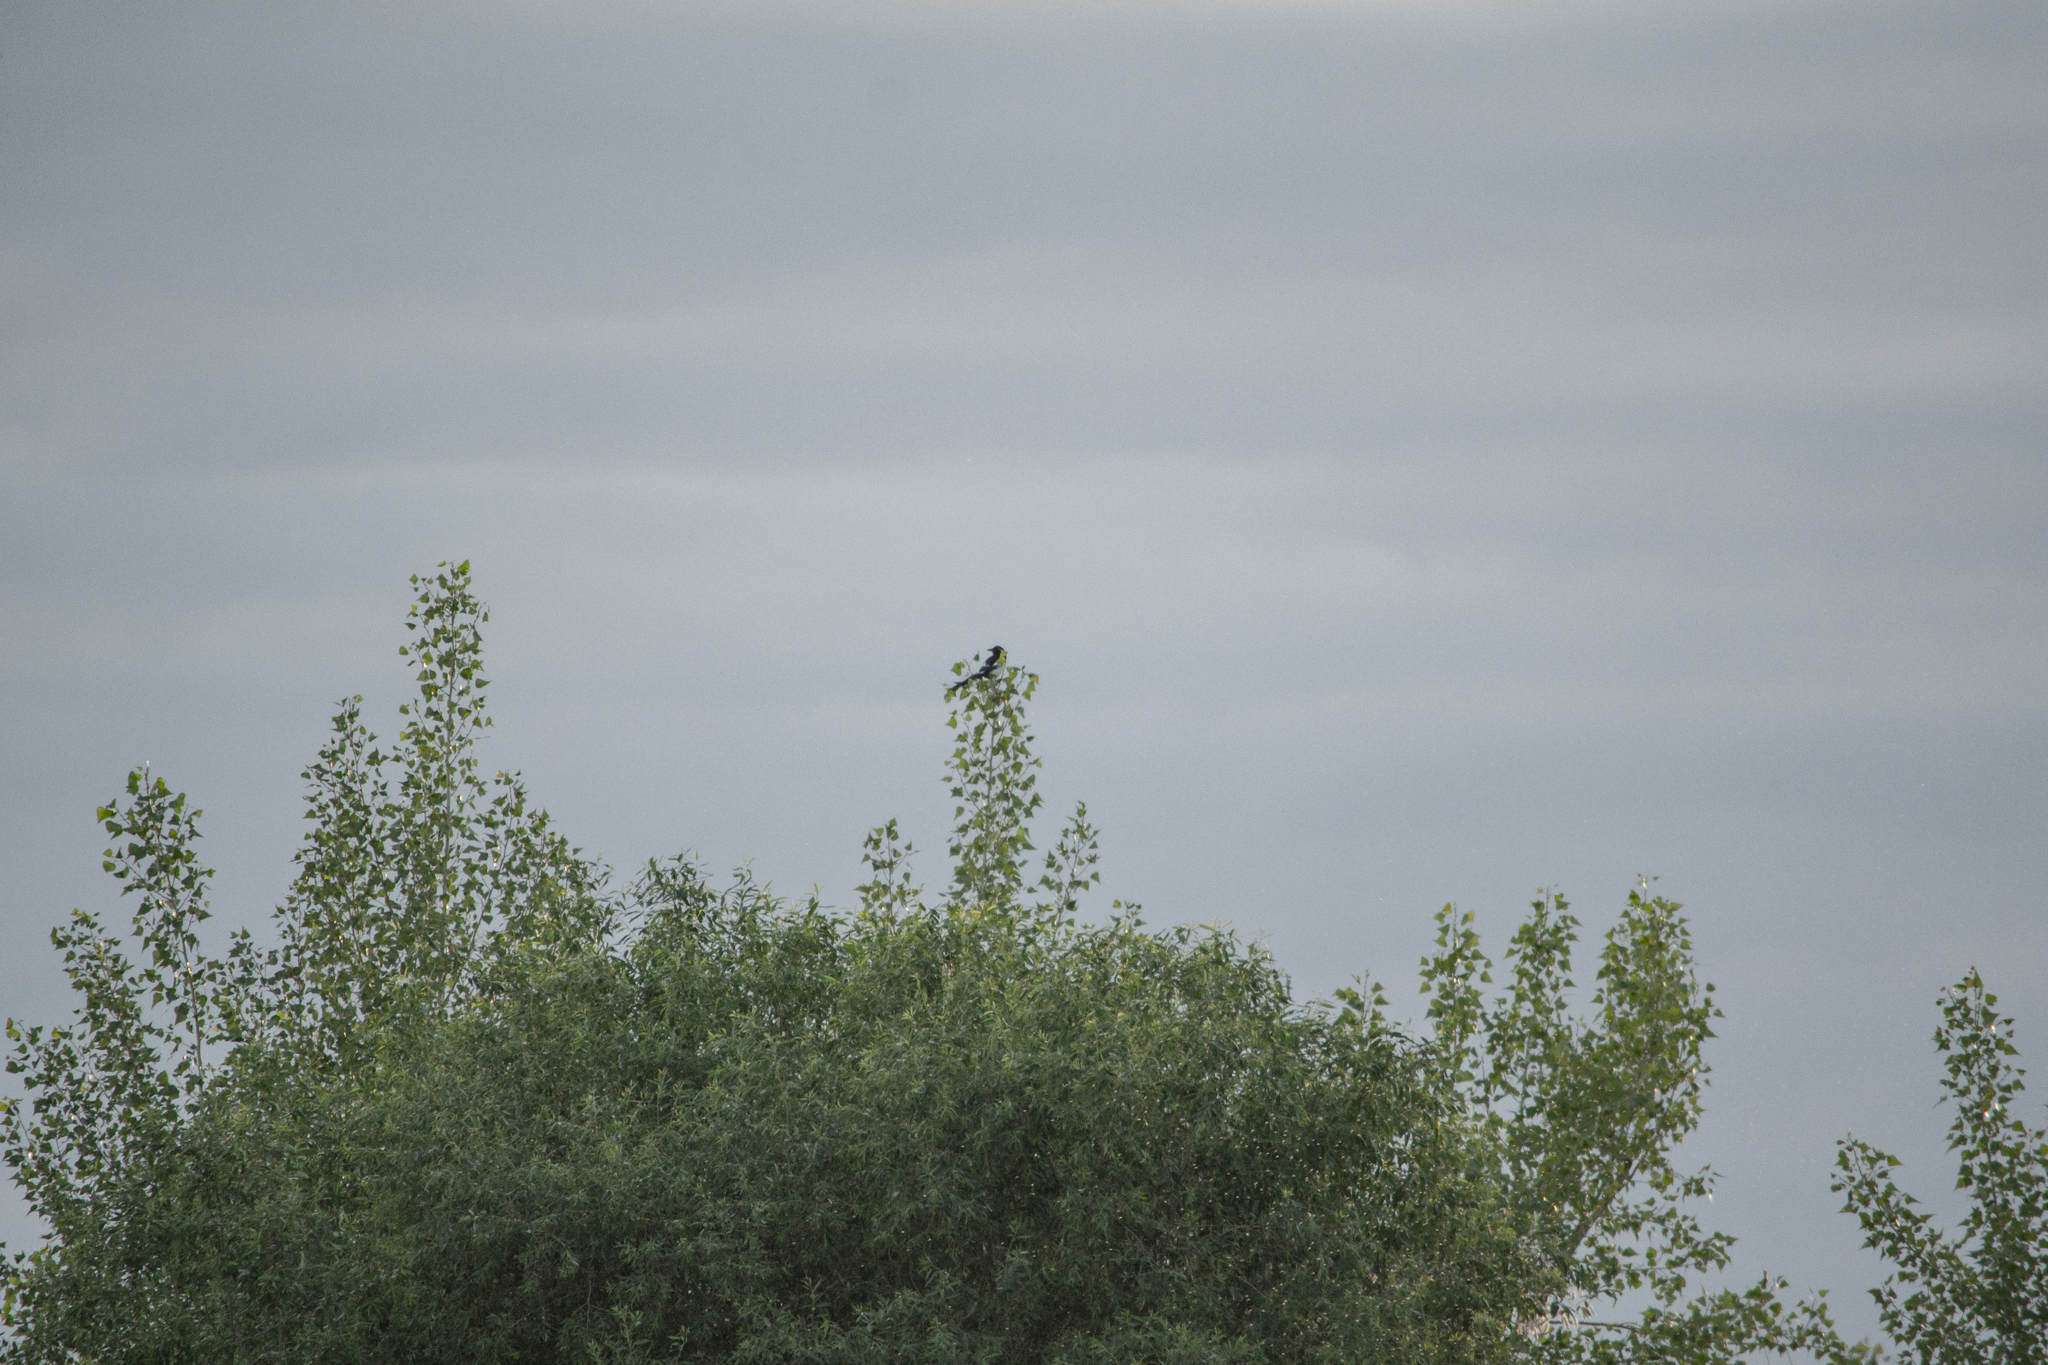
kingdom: Animalia
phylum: Chordata
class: Aves
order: Passeriformes
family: Corvidae
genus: Pica
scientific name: Pica pica
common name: Eurasian magpie
